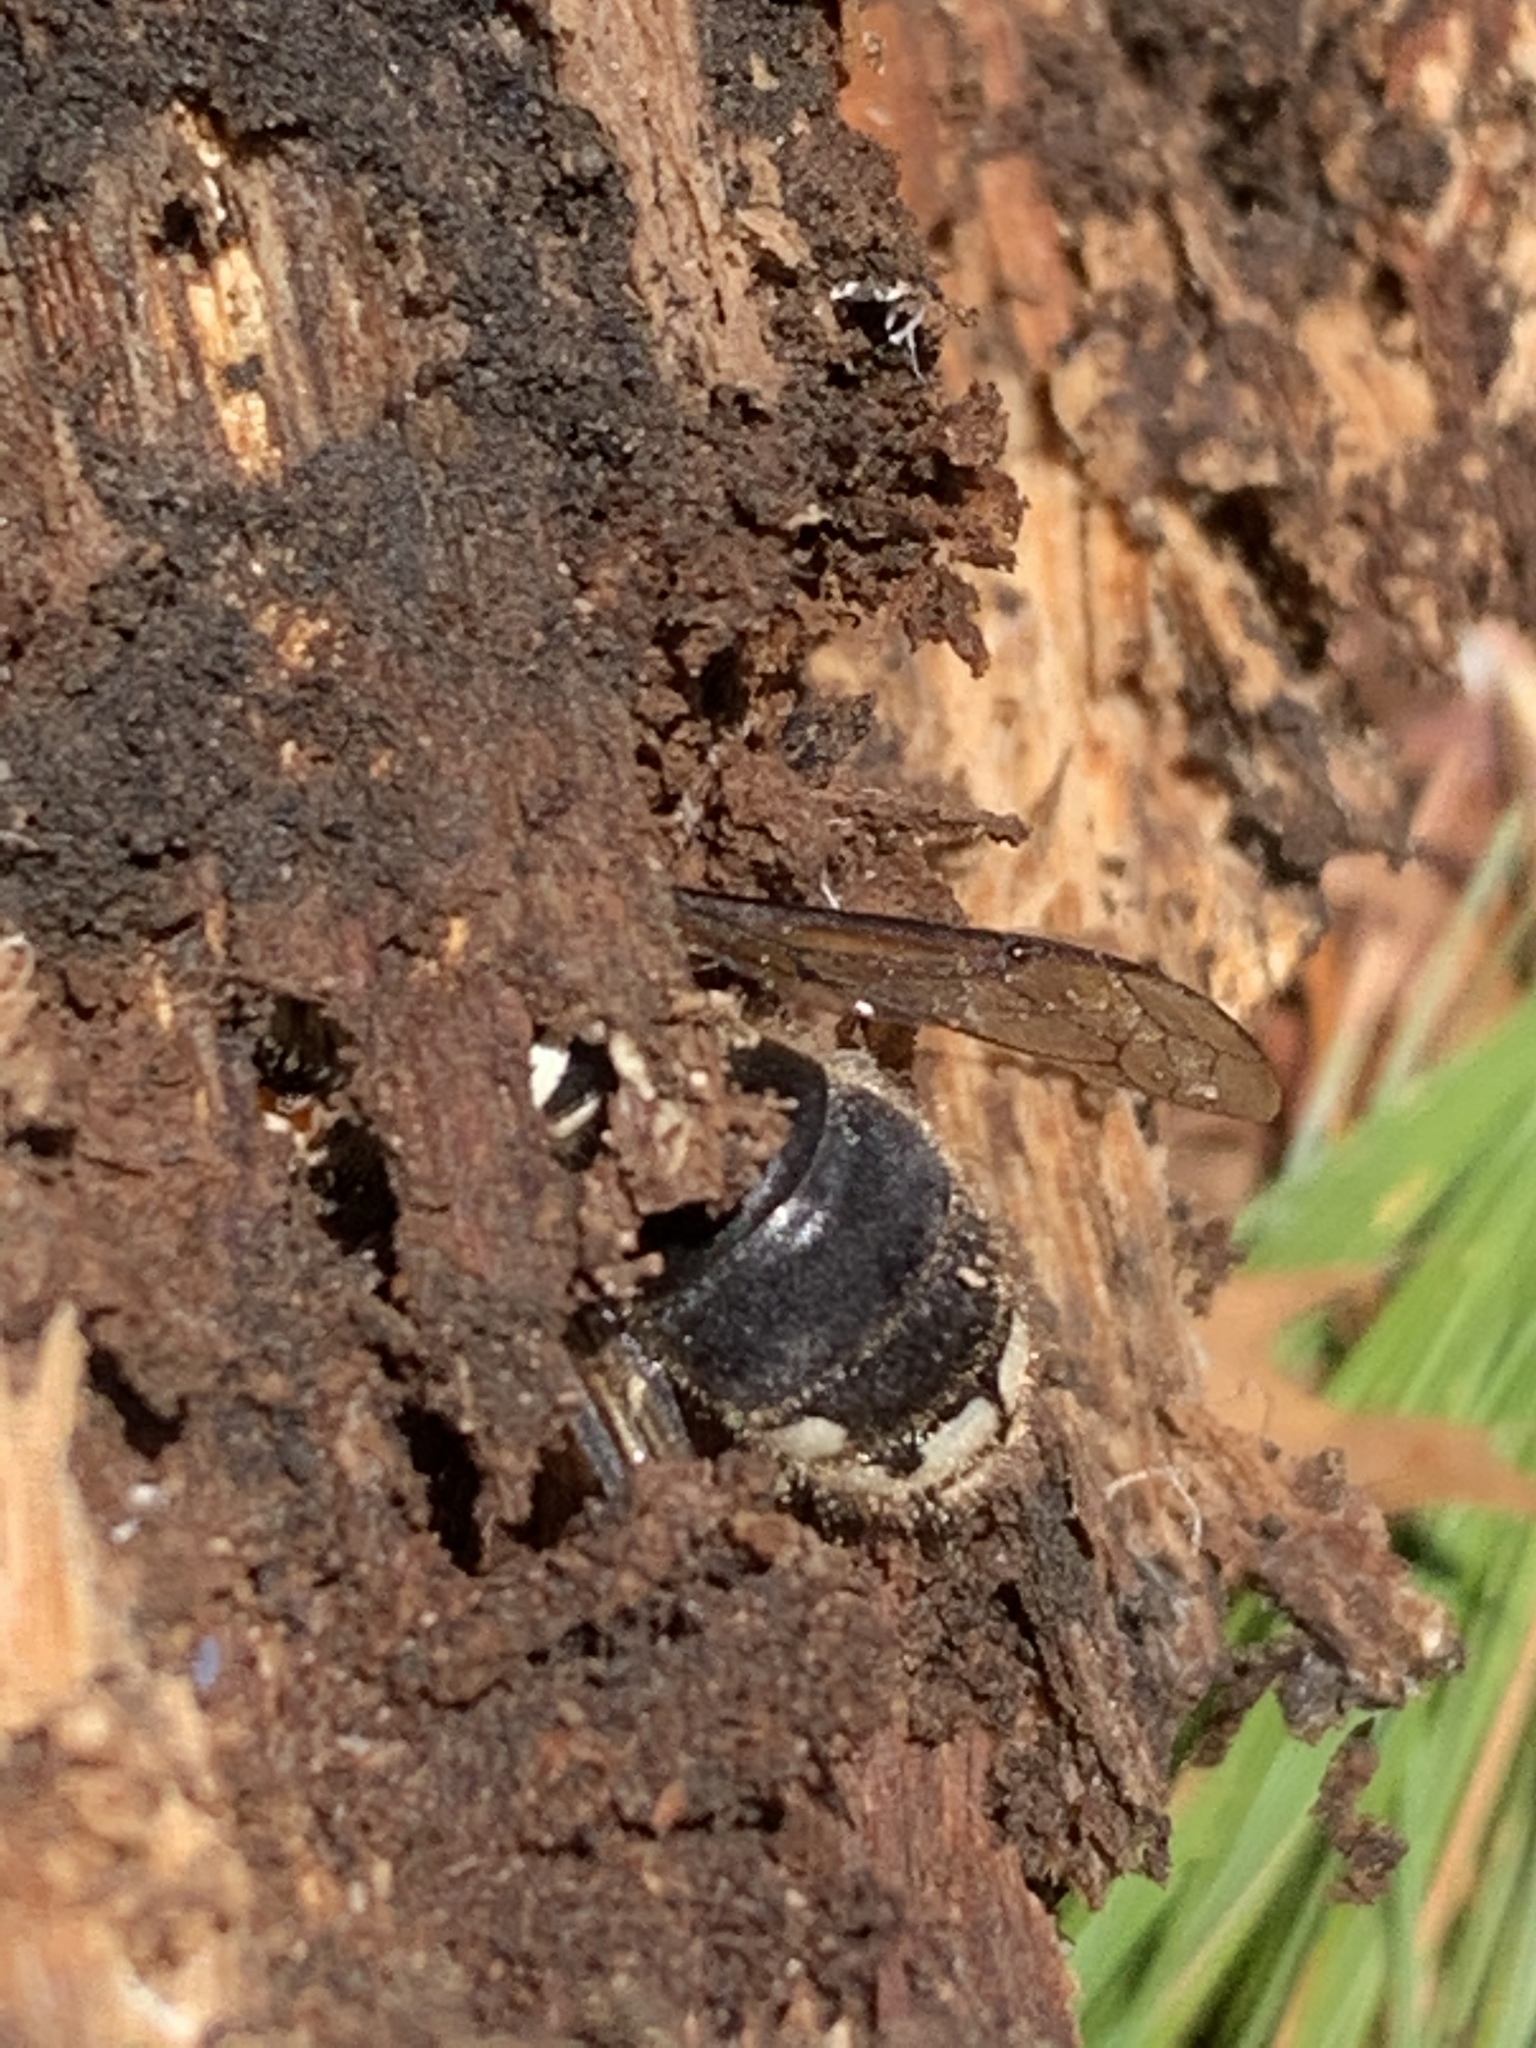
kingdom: Animalia
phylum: Arthropoda
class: Insecta
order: Hymenoptera
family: Vespidae
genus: Dolichovespula
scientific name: Dolichovespula maculata
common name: Bald-faced hornet
